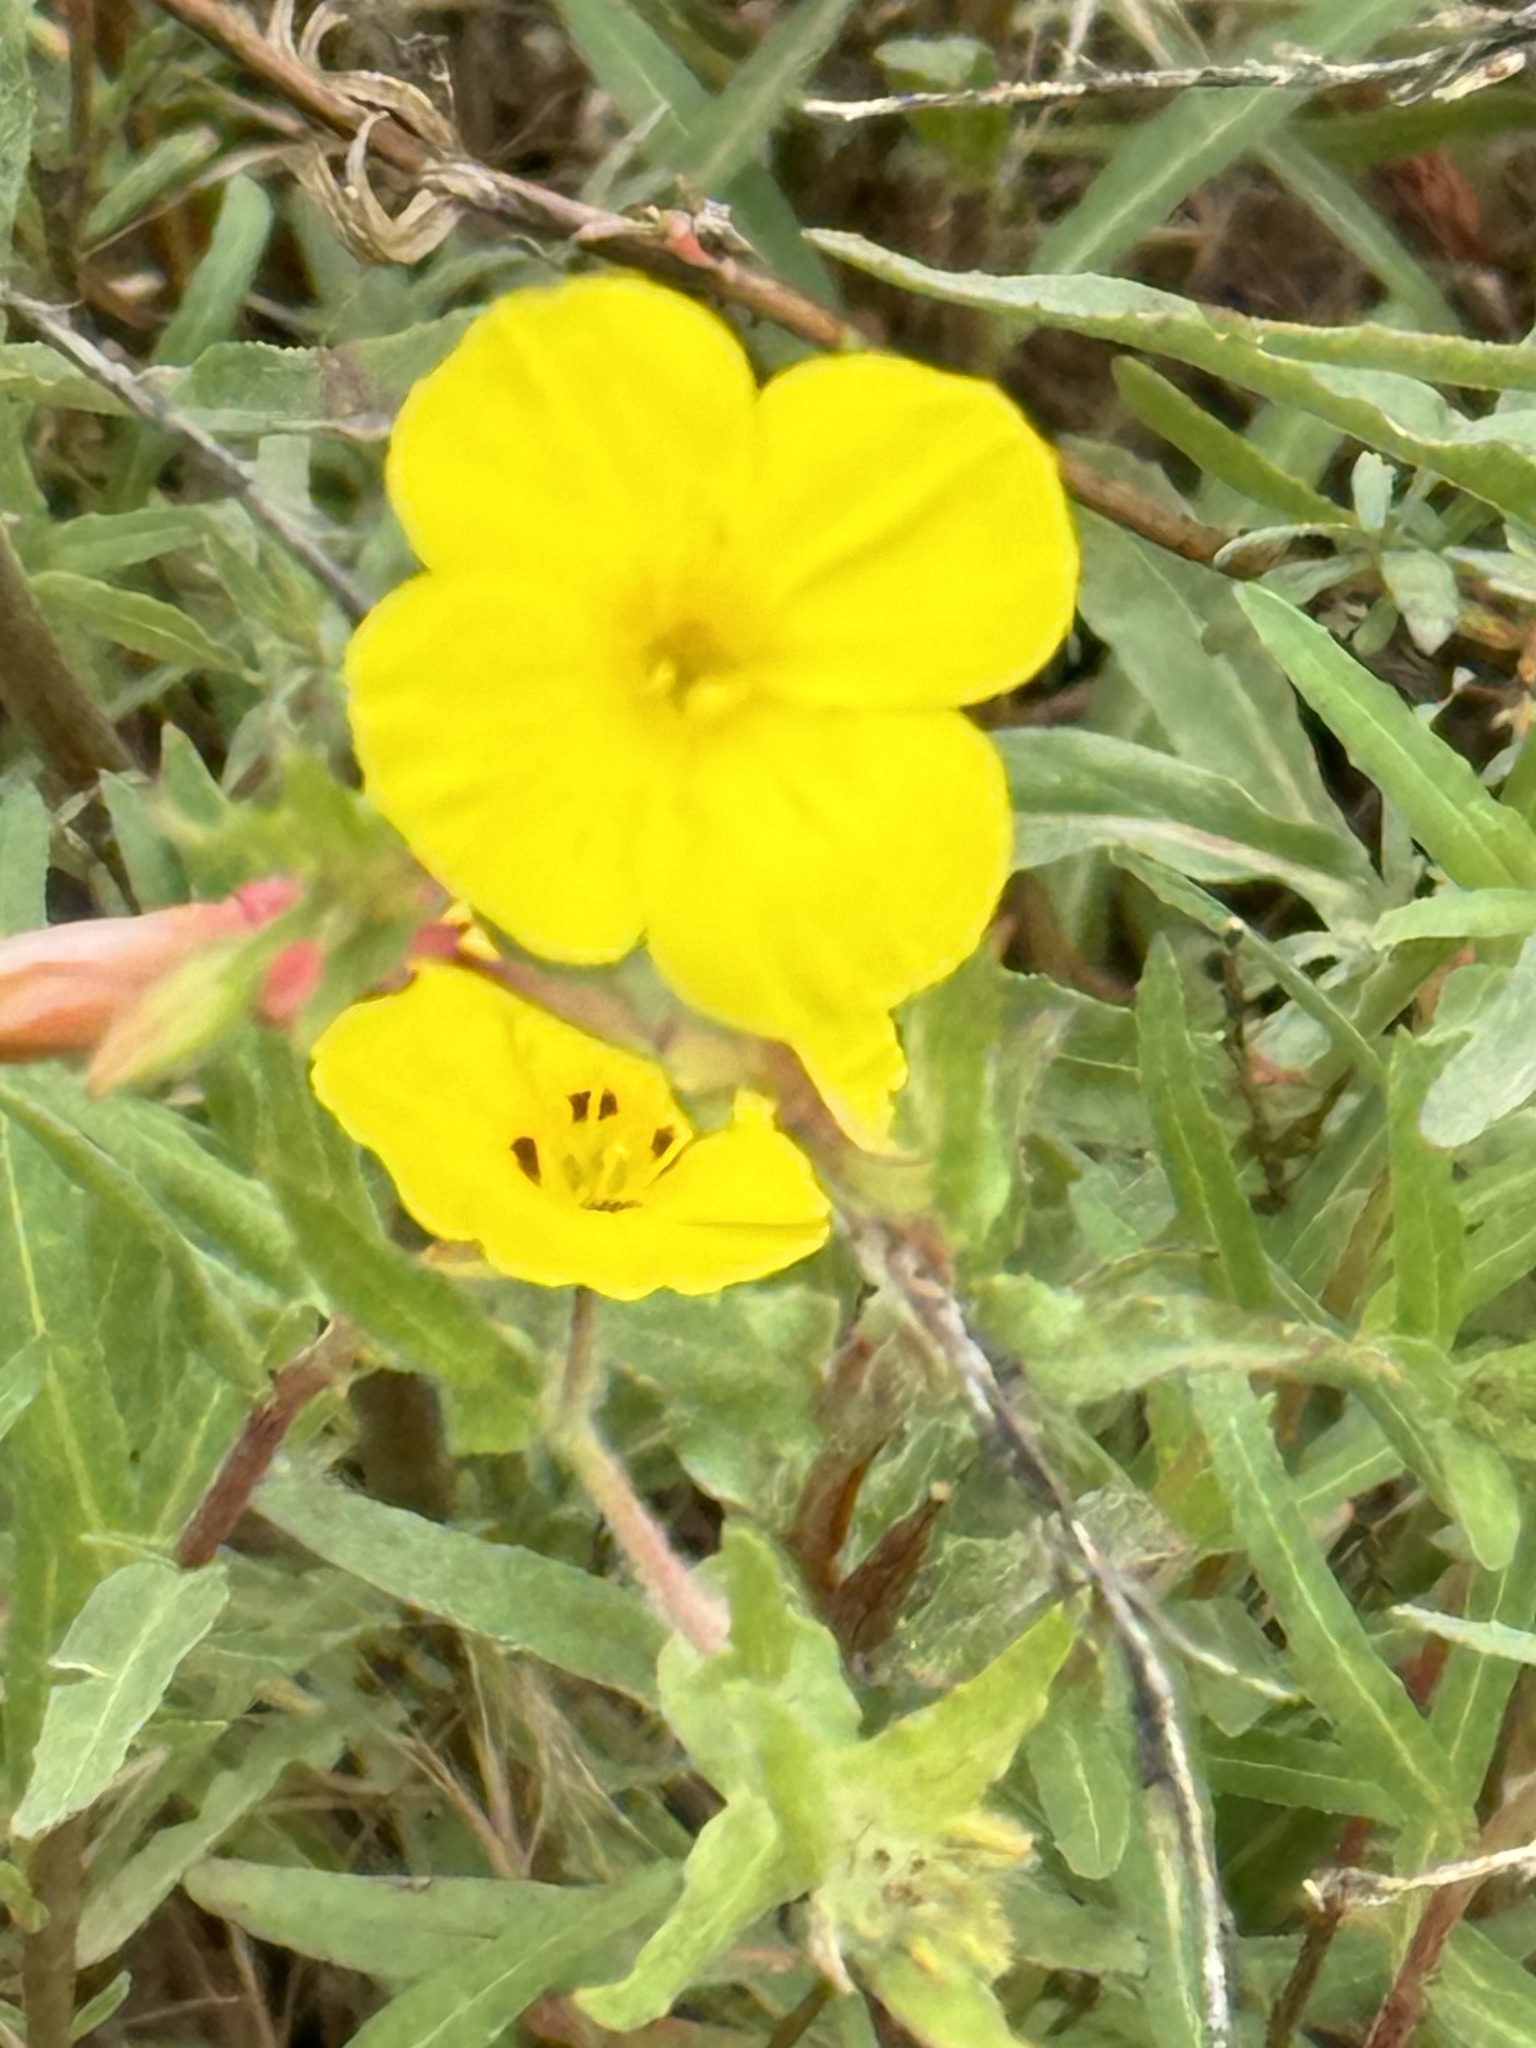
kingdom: Plantae
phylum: Tracheophyta
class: Magnoliopsida
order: Myrtales
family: Onagraceae
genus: Camissoniopsis
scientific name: Camissoniopsis bistorta
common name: Southern suncup
